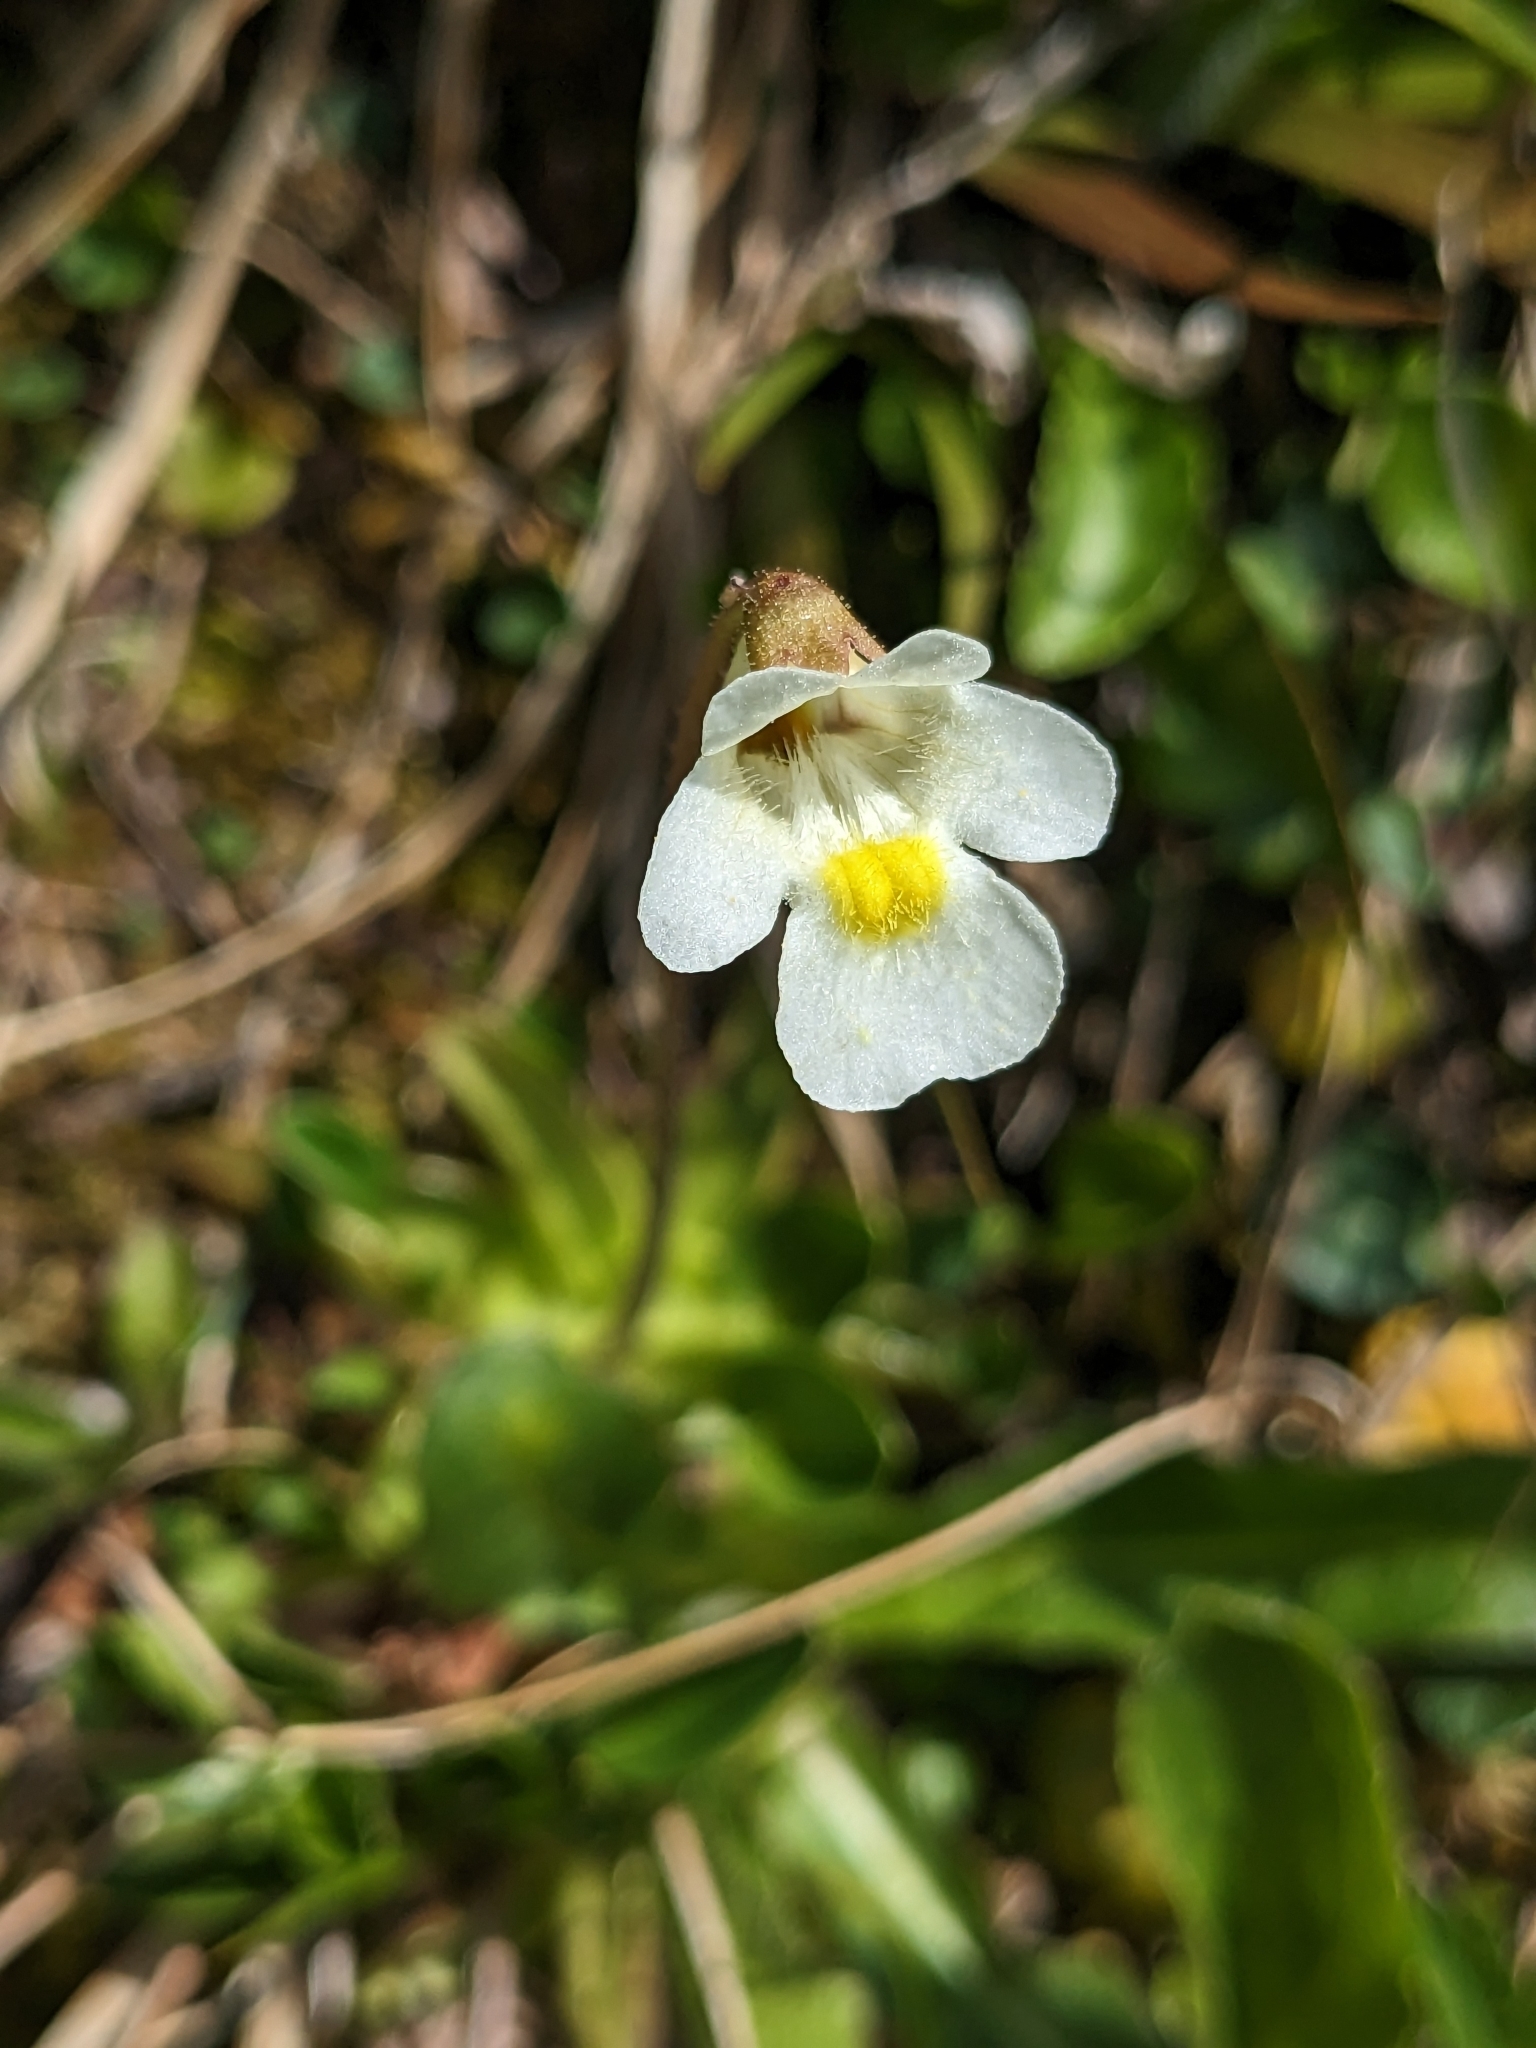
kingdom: Plantae
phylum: Tracheophyta
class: Magnoliopsida
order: Lamiales
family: Lentibulariaceae
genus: Pinguicula
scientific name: Pinguicula alpina
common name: Alpine butterwort
